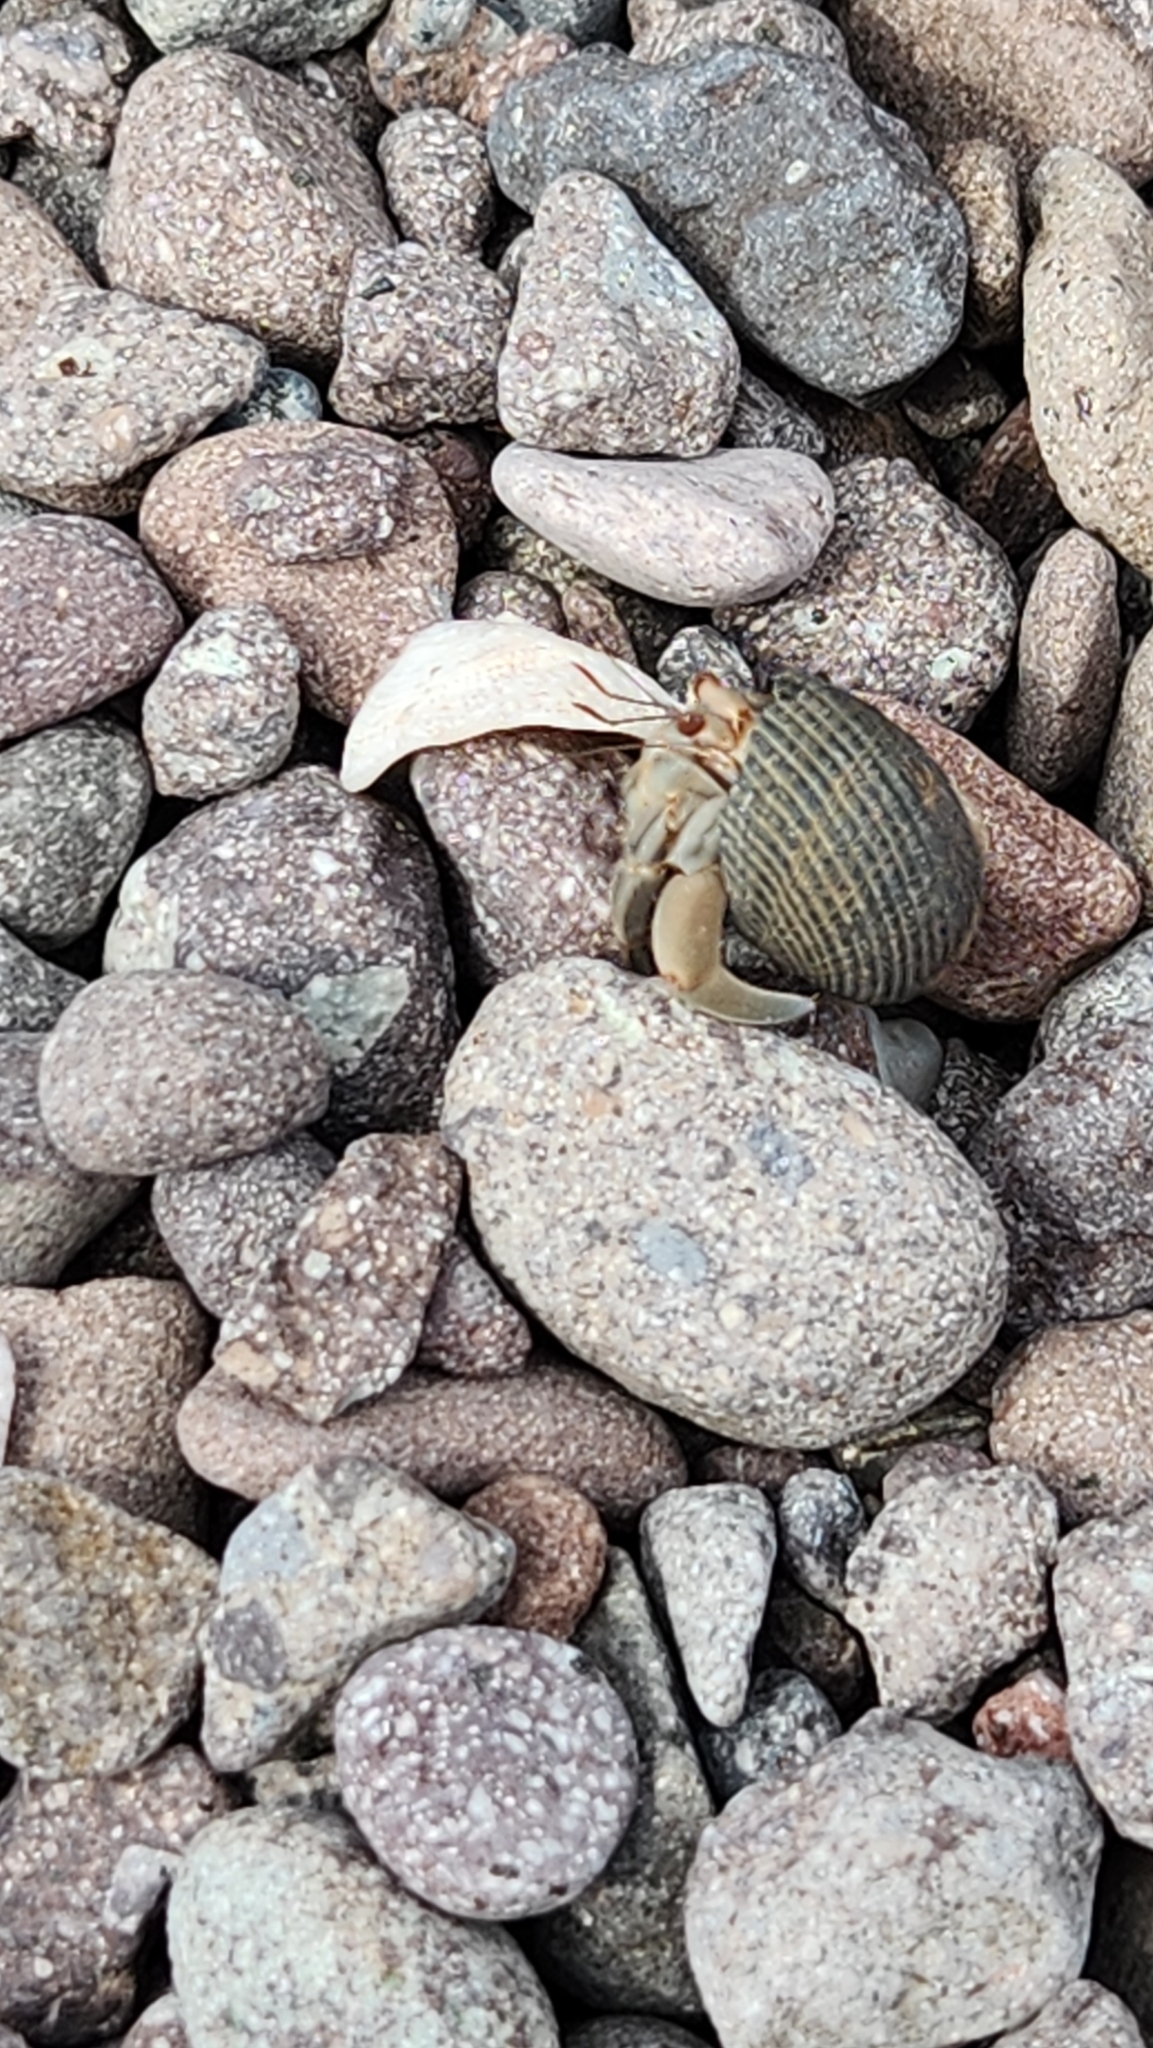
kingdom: Animalia
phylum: Arthropoda
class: Malacostraca
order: Decapoda
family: Coenobitidae
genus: Coenobita
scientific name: Coenobita compressus
